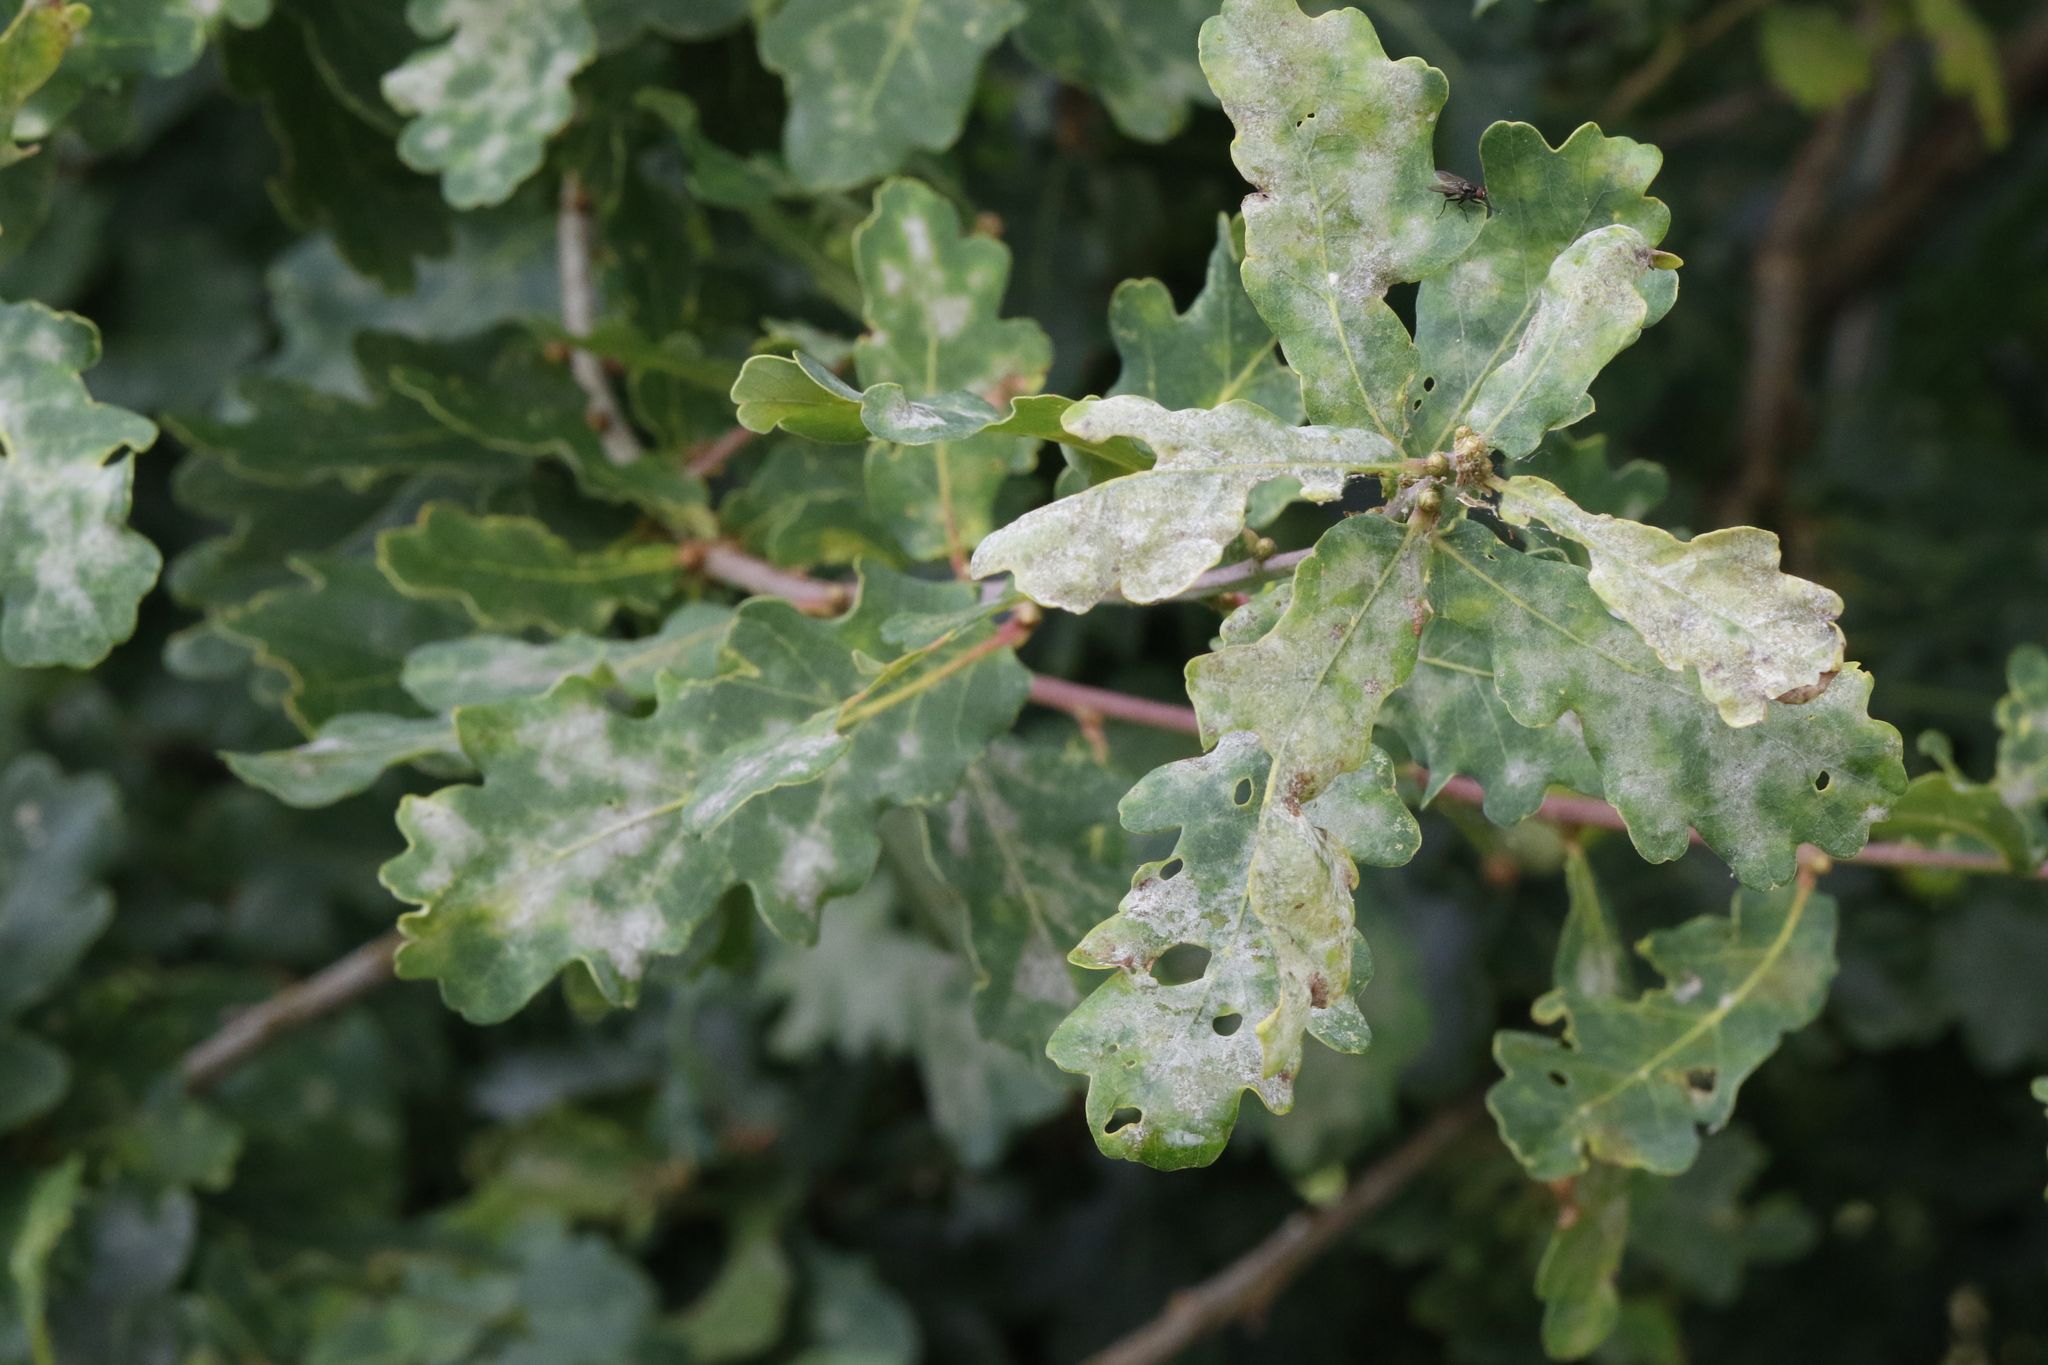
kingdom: Plantae
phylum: Tracheophyta
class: Magnoliopsida
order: Fagales
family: Fagaceae
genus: Quercus
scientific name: Quercus robur
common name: Pedunculate oak
